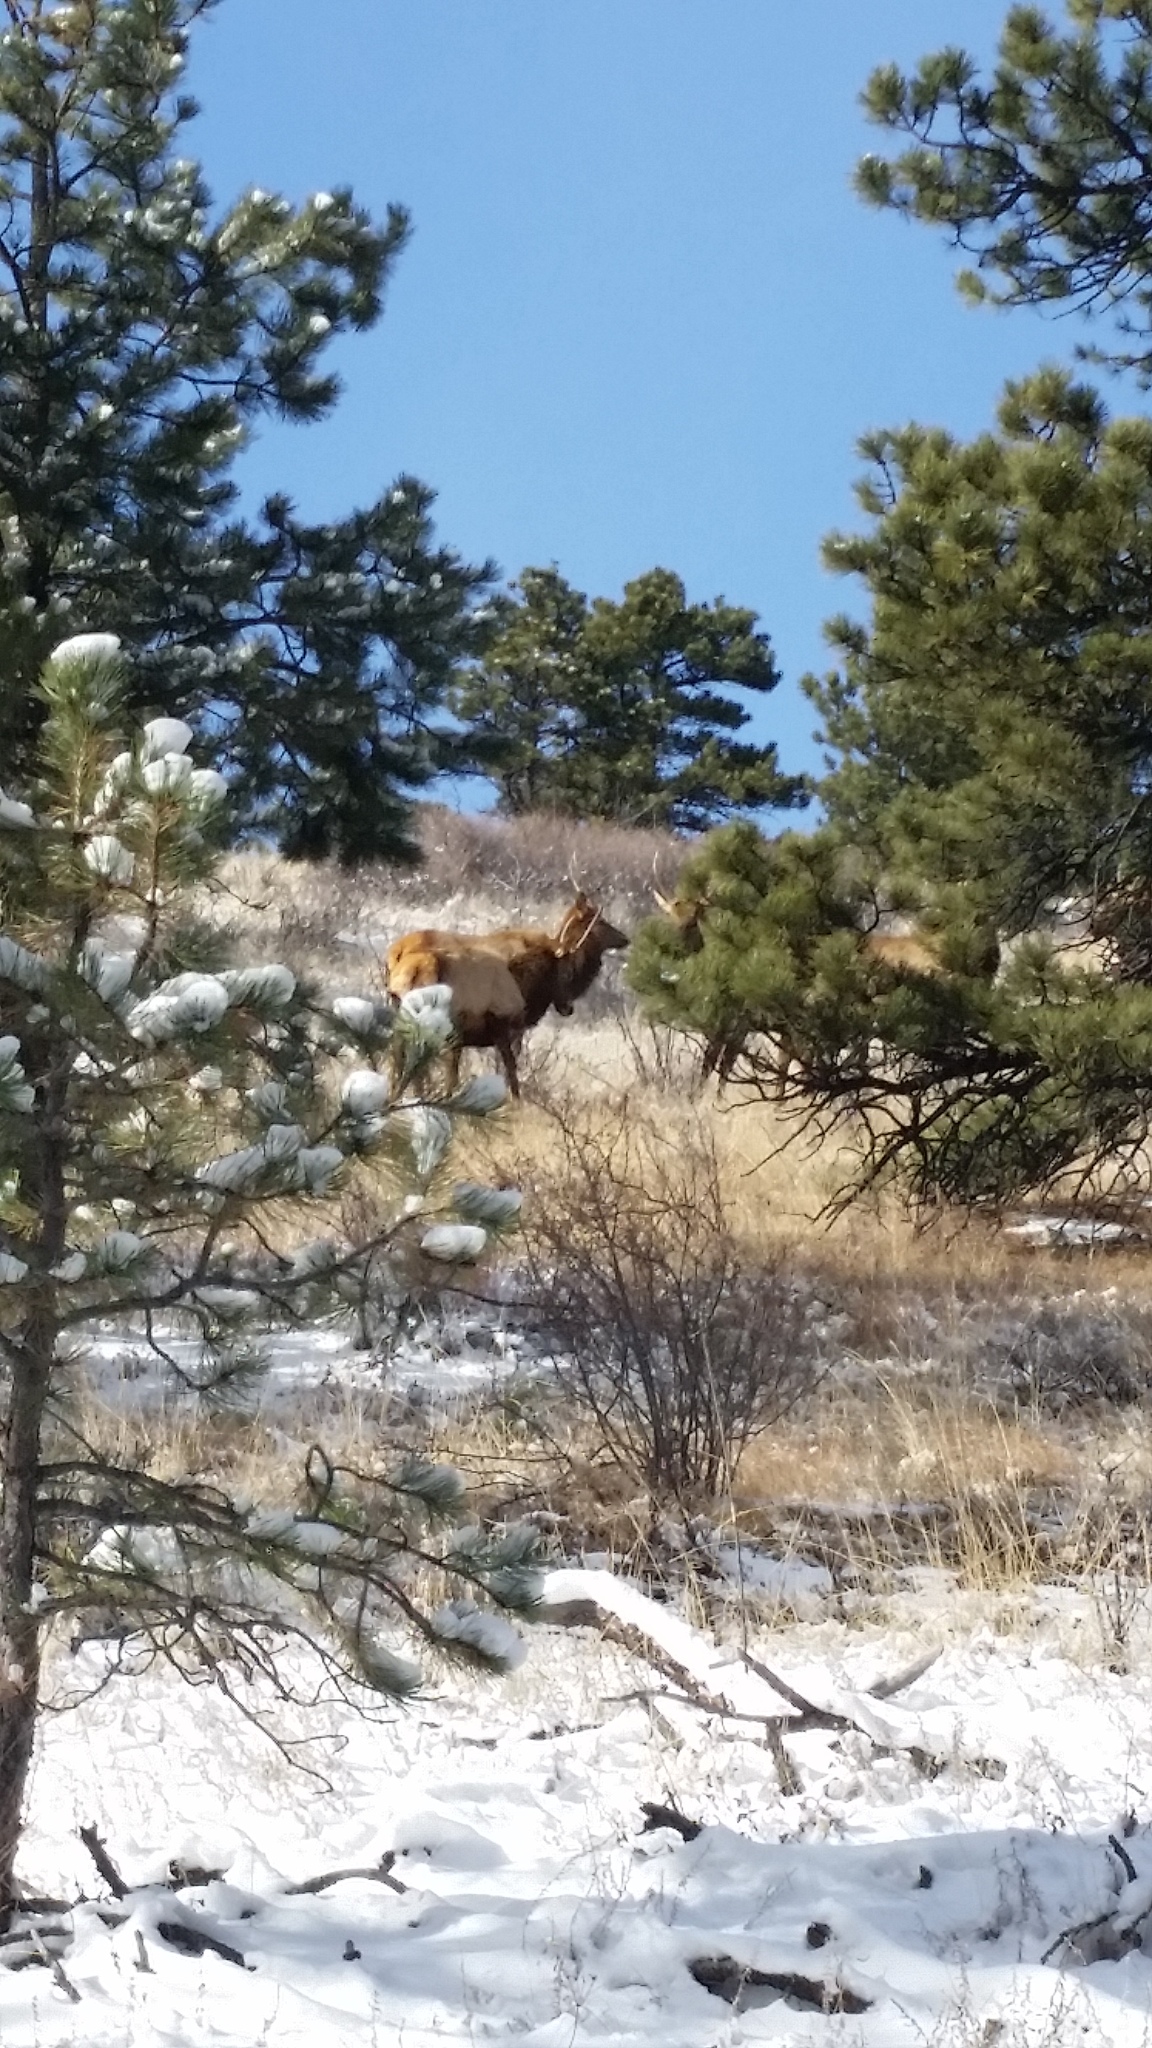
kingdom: Animalia
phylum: Chordata
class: Mammalia
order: Artiodactyla
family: Cervidae
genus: Cervus
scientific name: Cervus elaphus
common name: Red deer
